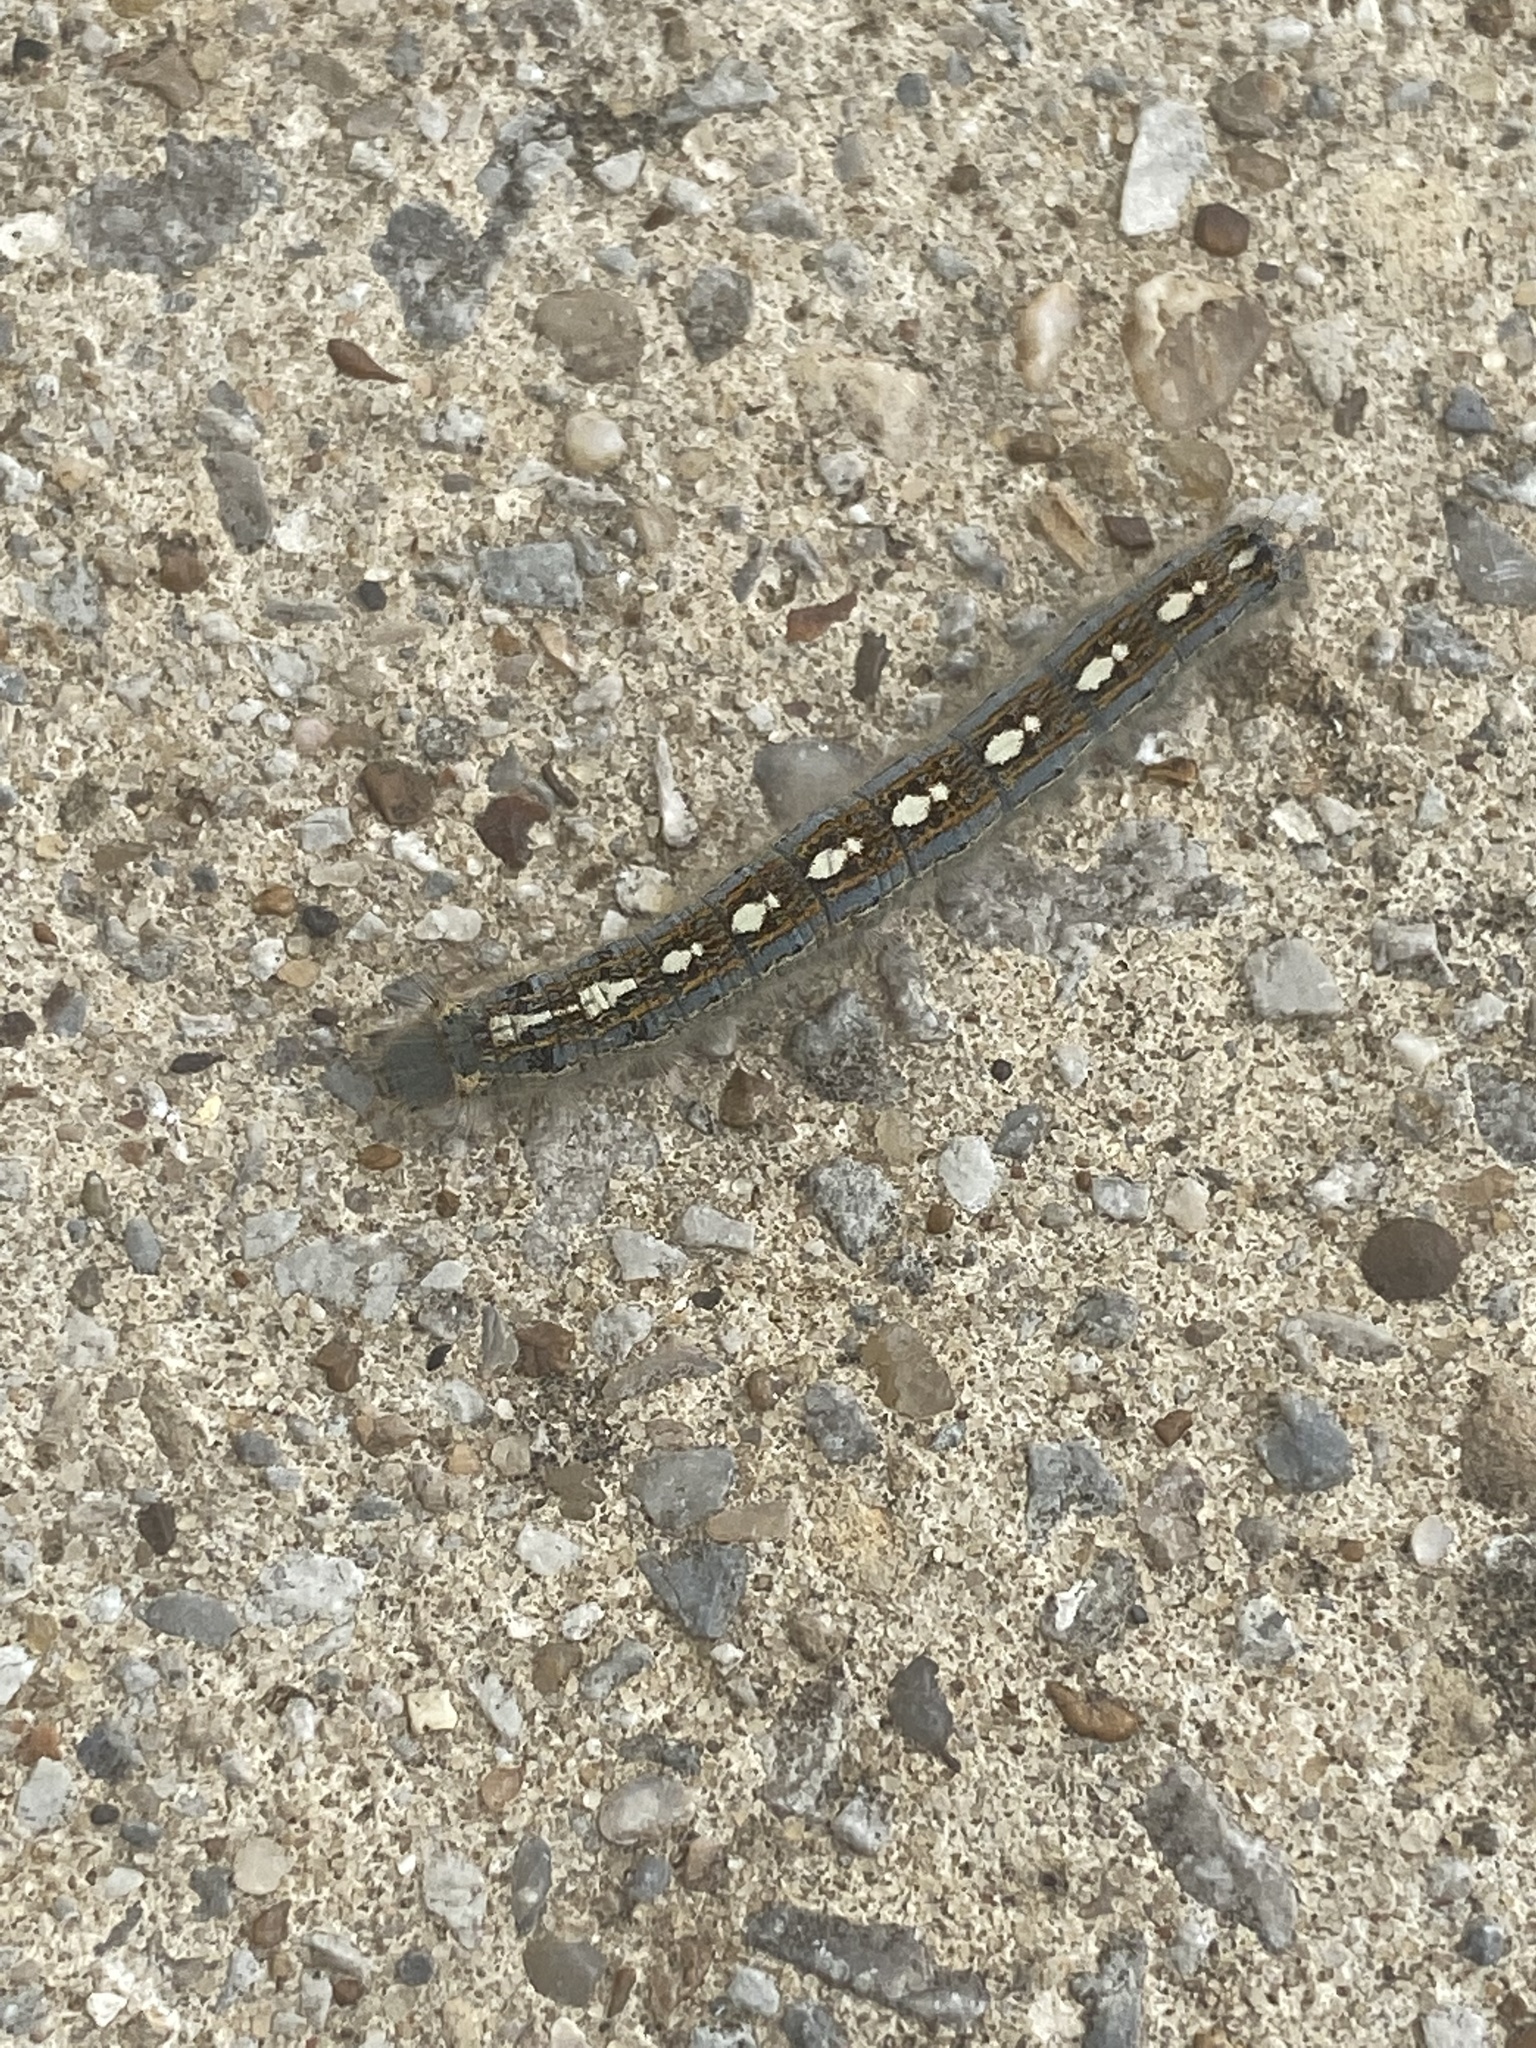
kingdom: Animalia
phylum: Arthropoda
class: Insecta
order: Lepidoptera
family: Lasiocampidae
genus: Malacosoma
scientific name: Malacosoma disstria
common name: Forest tent caterpillar
